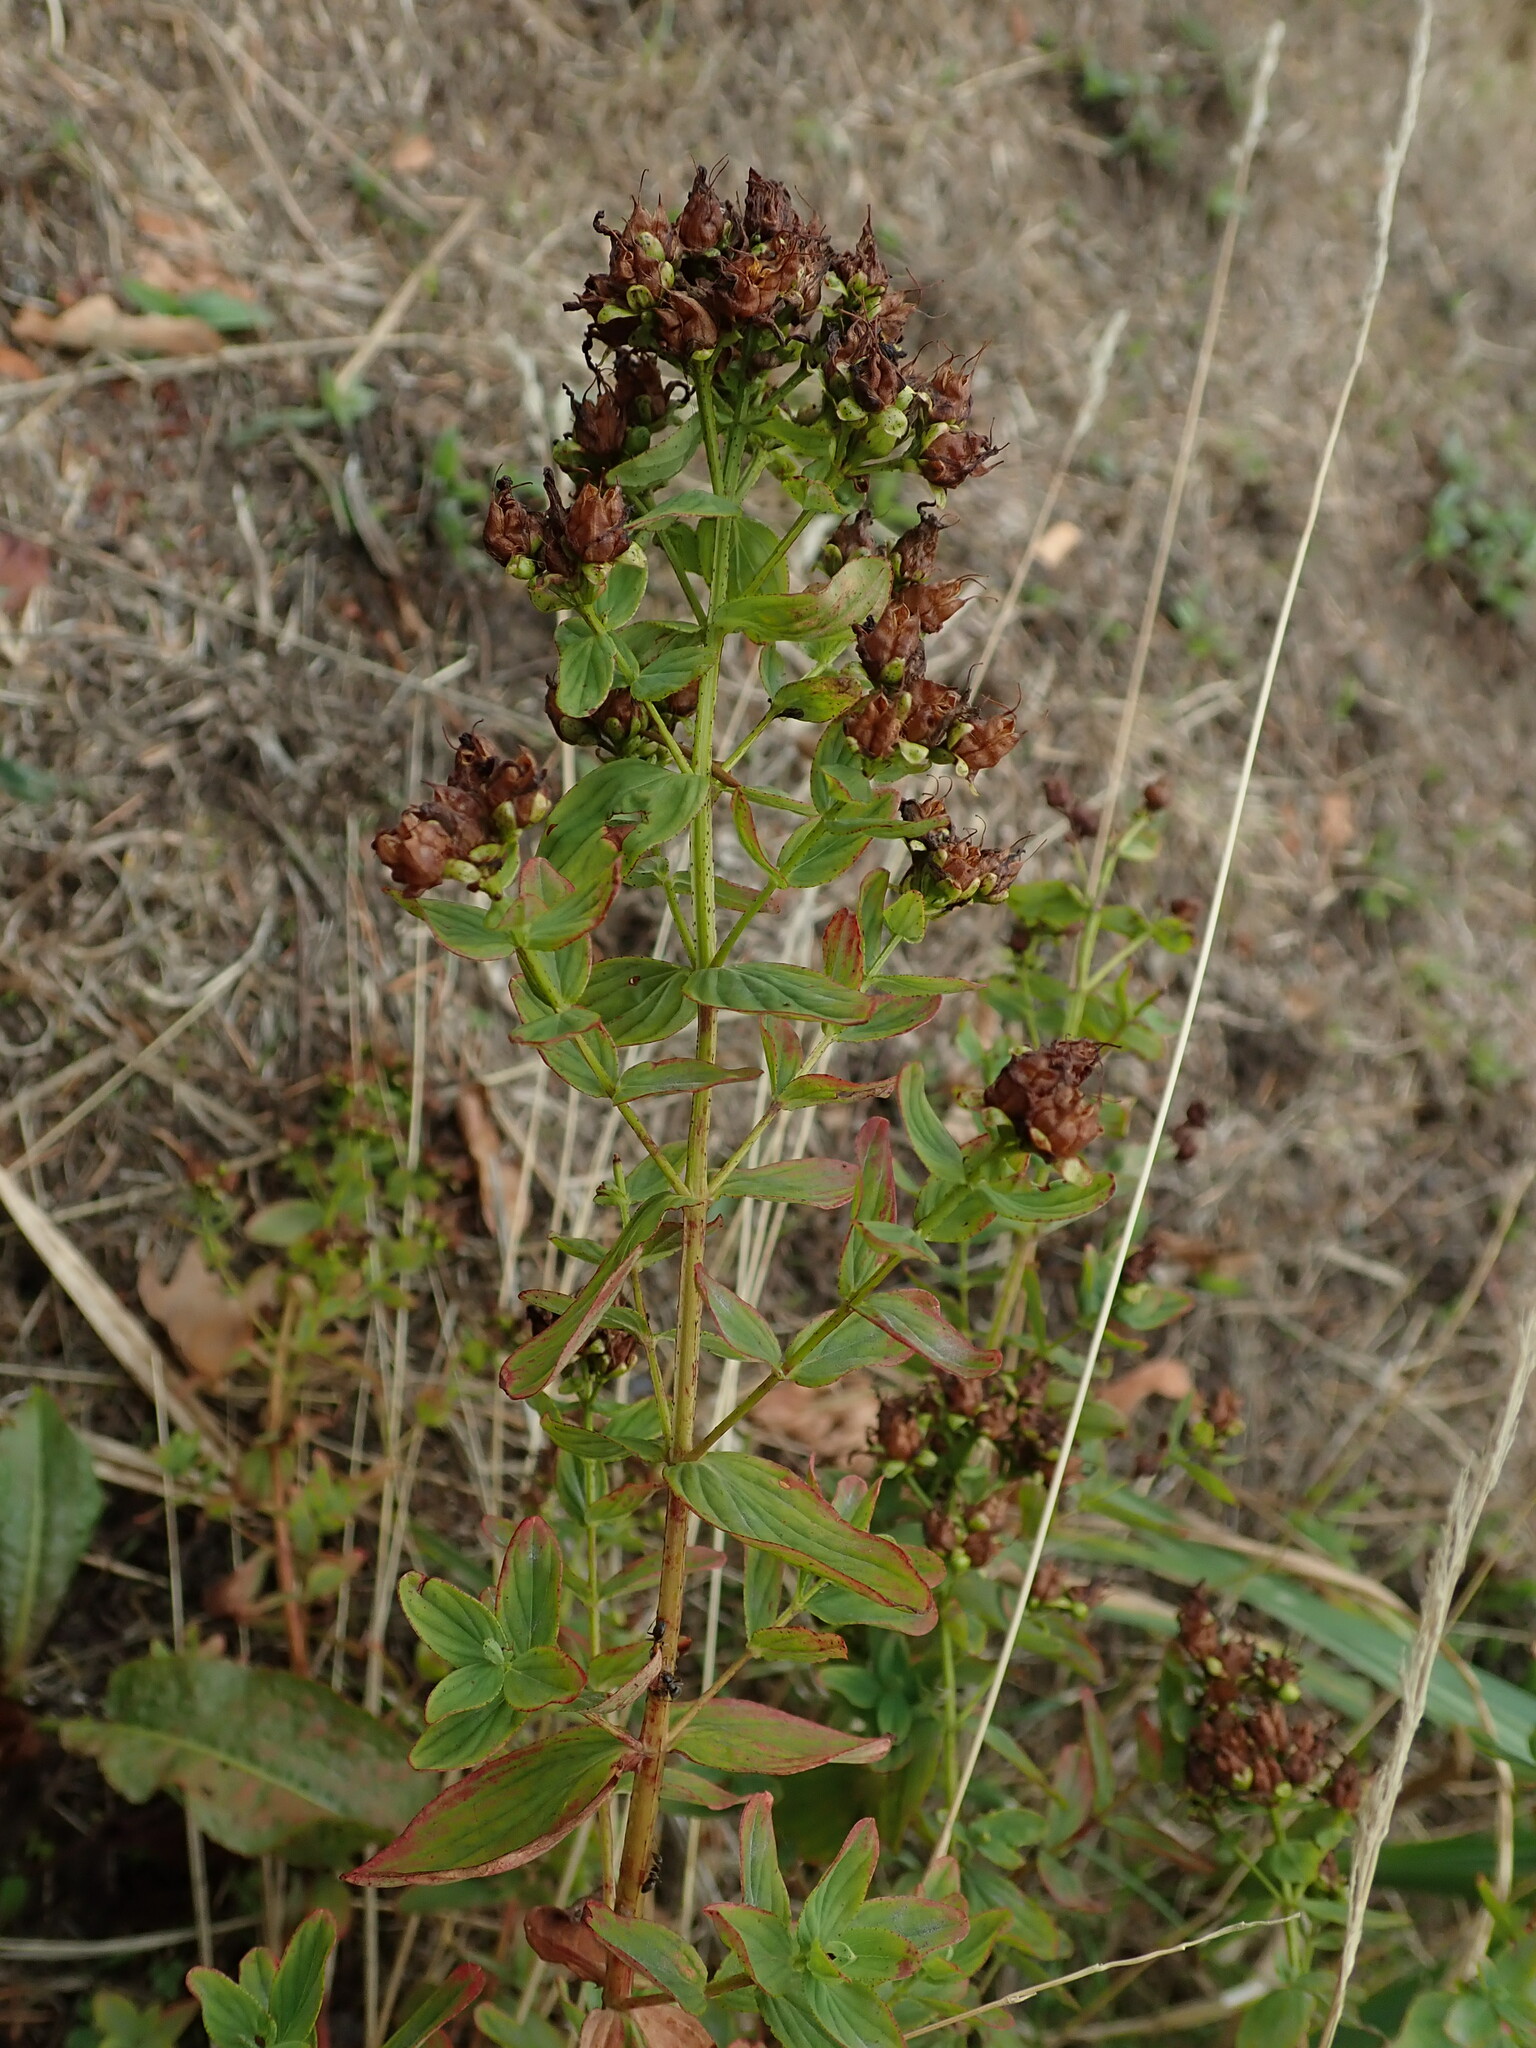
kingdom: Plantae
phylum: Tracheophyta
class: Magnoliopsida
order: Malpighiales
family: Hypericaceae
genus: Hypericum
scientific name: Hypericum dubium
